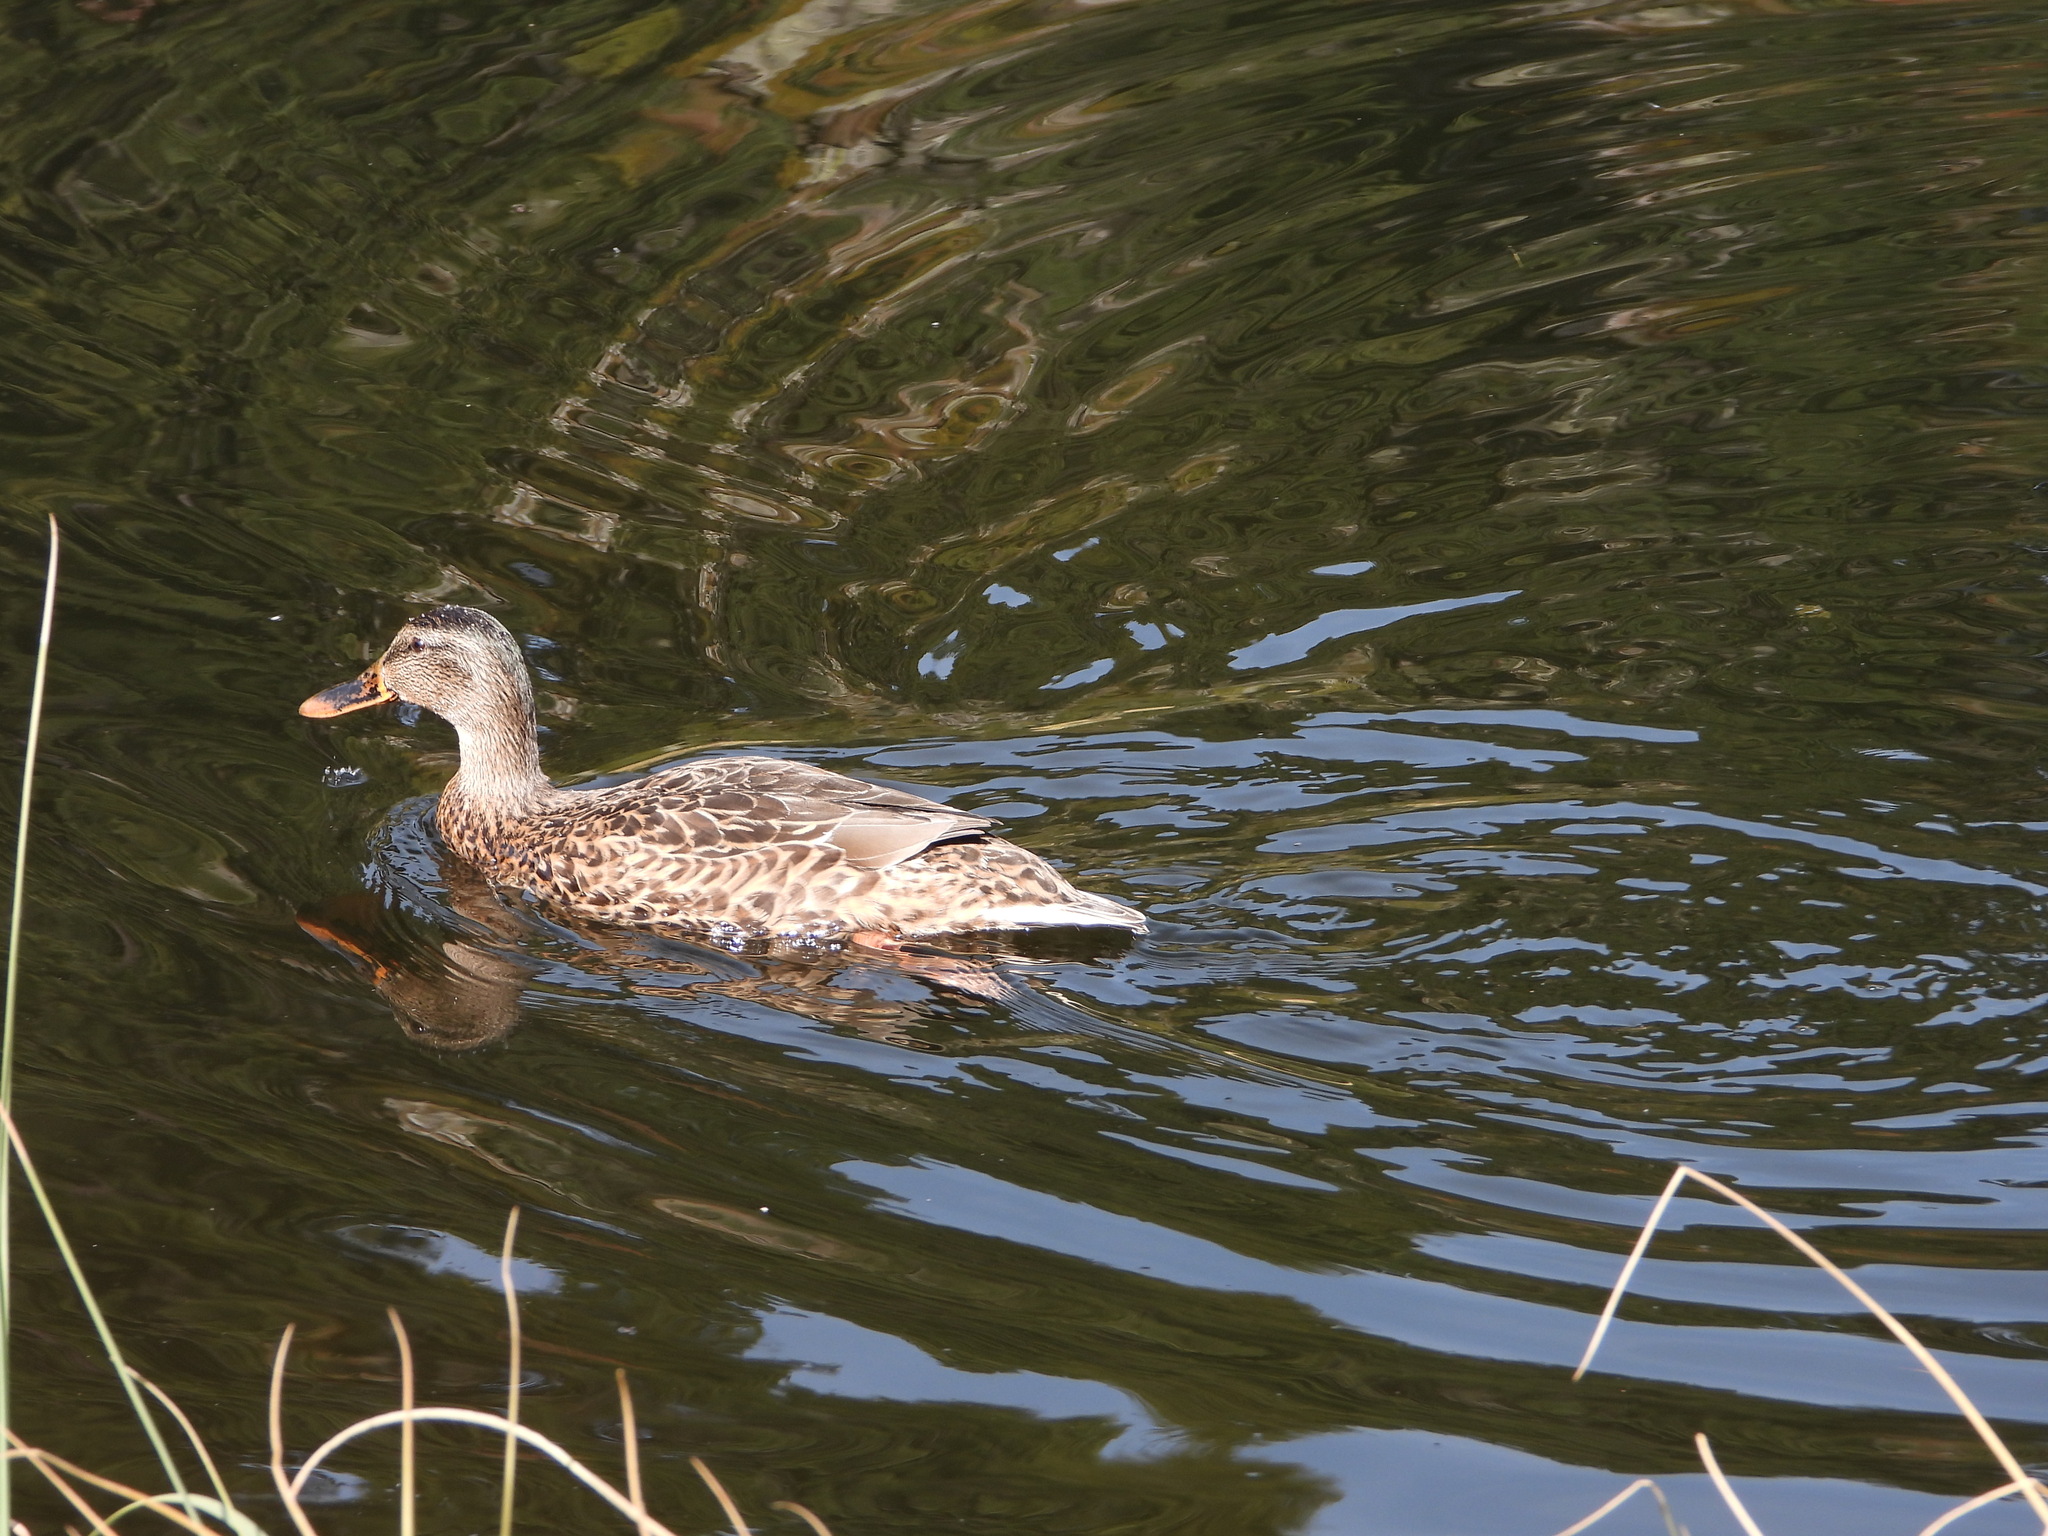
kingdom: Animalia
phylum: Chordata
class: Aves
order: Anseriformes
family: Anatidae
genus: Anas
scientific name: Anas platyrhynchos
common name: Mallard
